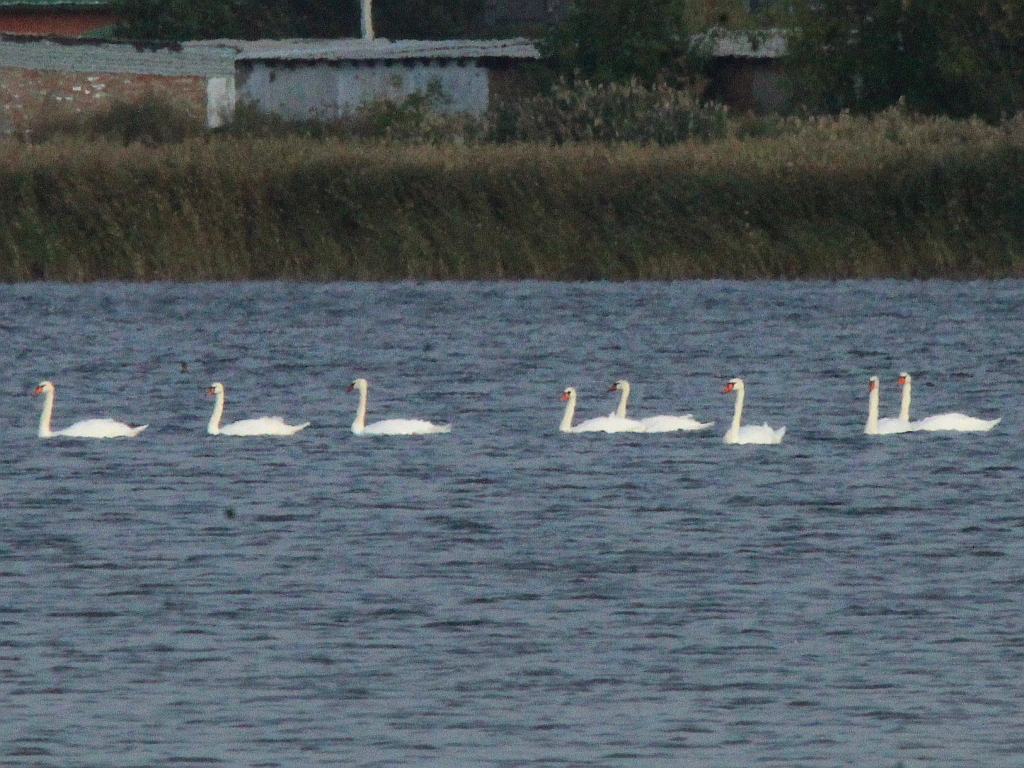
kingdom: Animalia
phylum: Chordata
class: Aves
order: Anseriformes
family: Anatidae
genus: Cygnus
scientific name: Cygnus olor
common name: Mute swan
